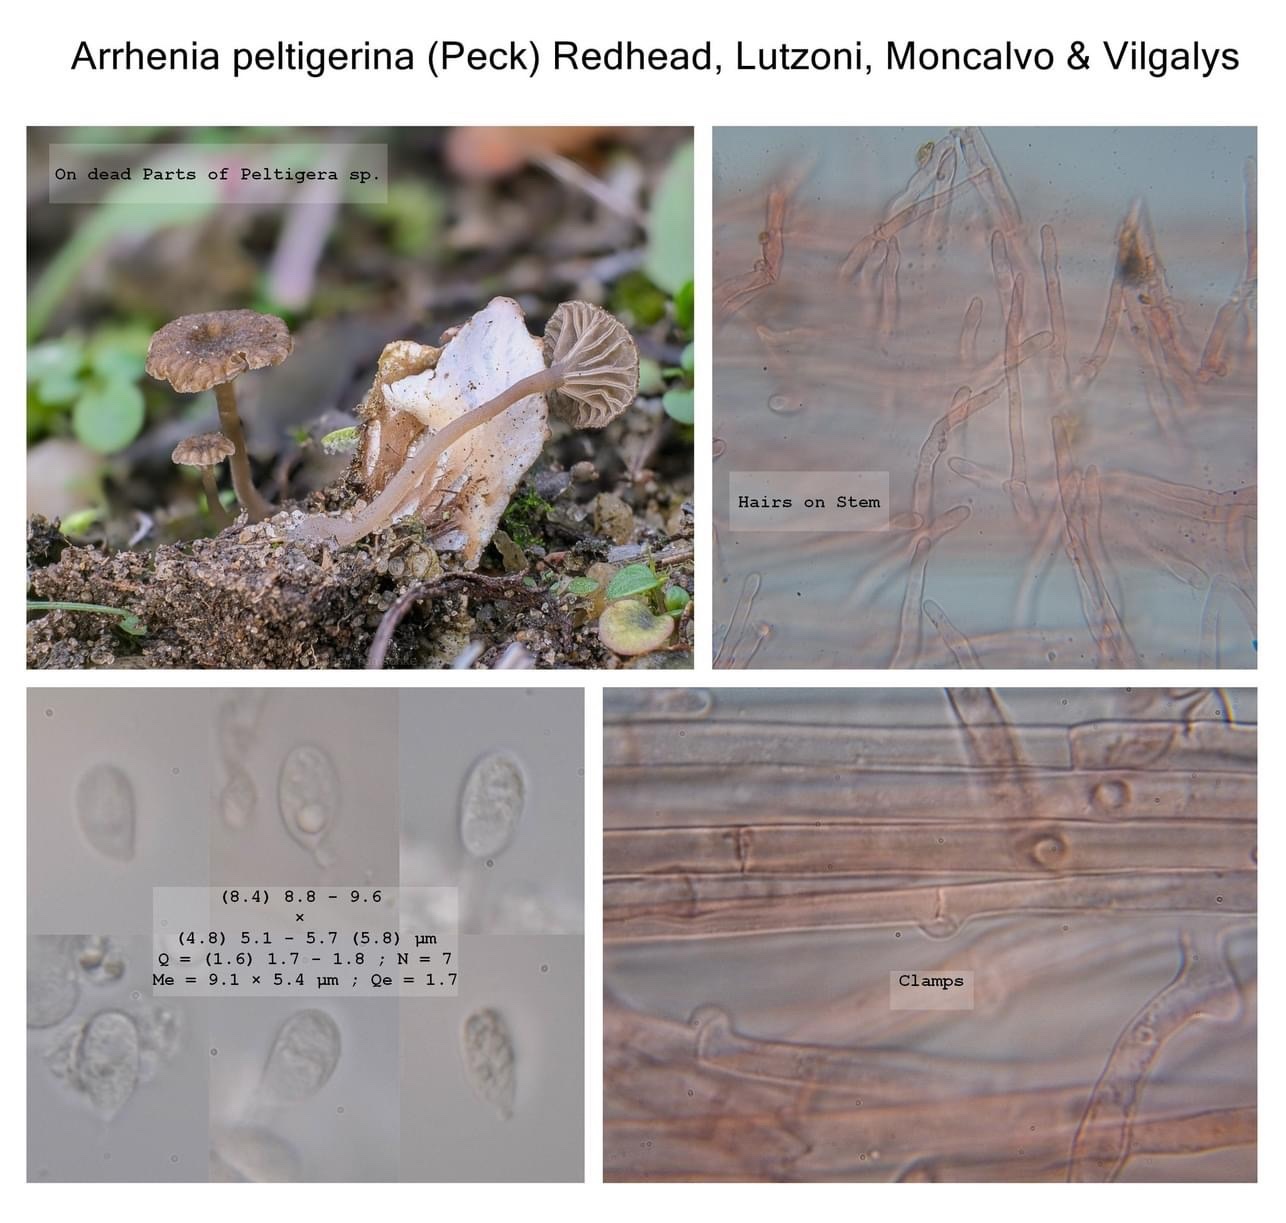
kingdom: Fungi
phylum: Basidiomycota
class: Agaricomycetes
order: Agaricales
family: Hygrophoraceae
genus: Arrhenia
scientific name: Arrhenia peltigerina
